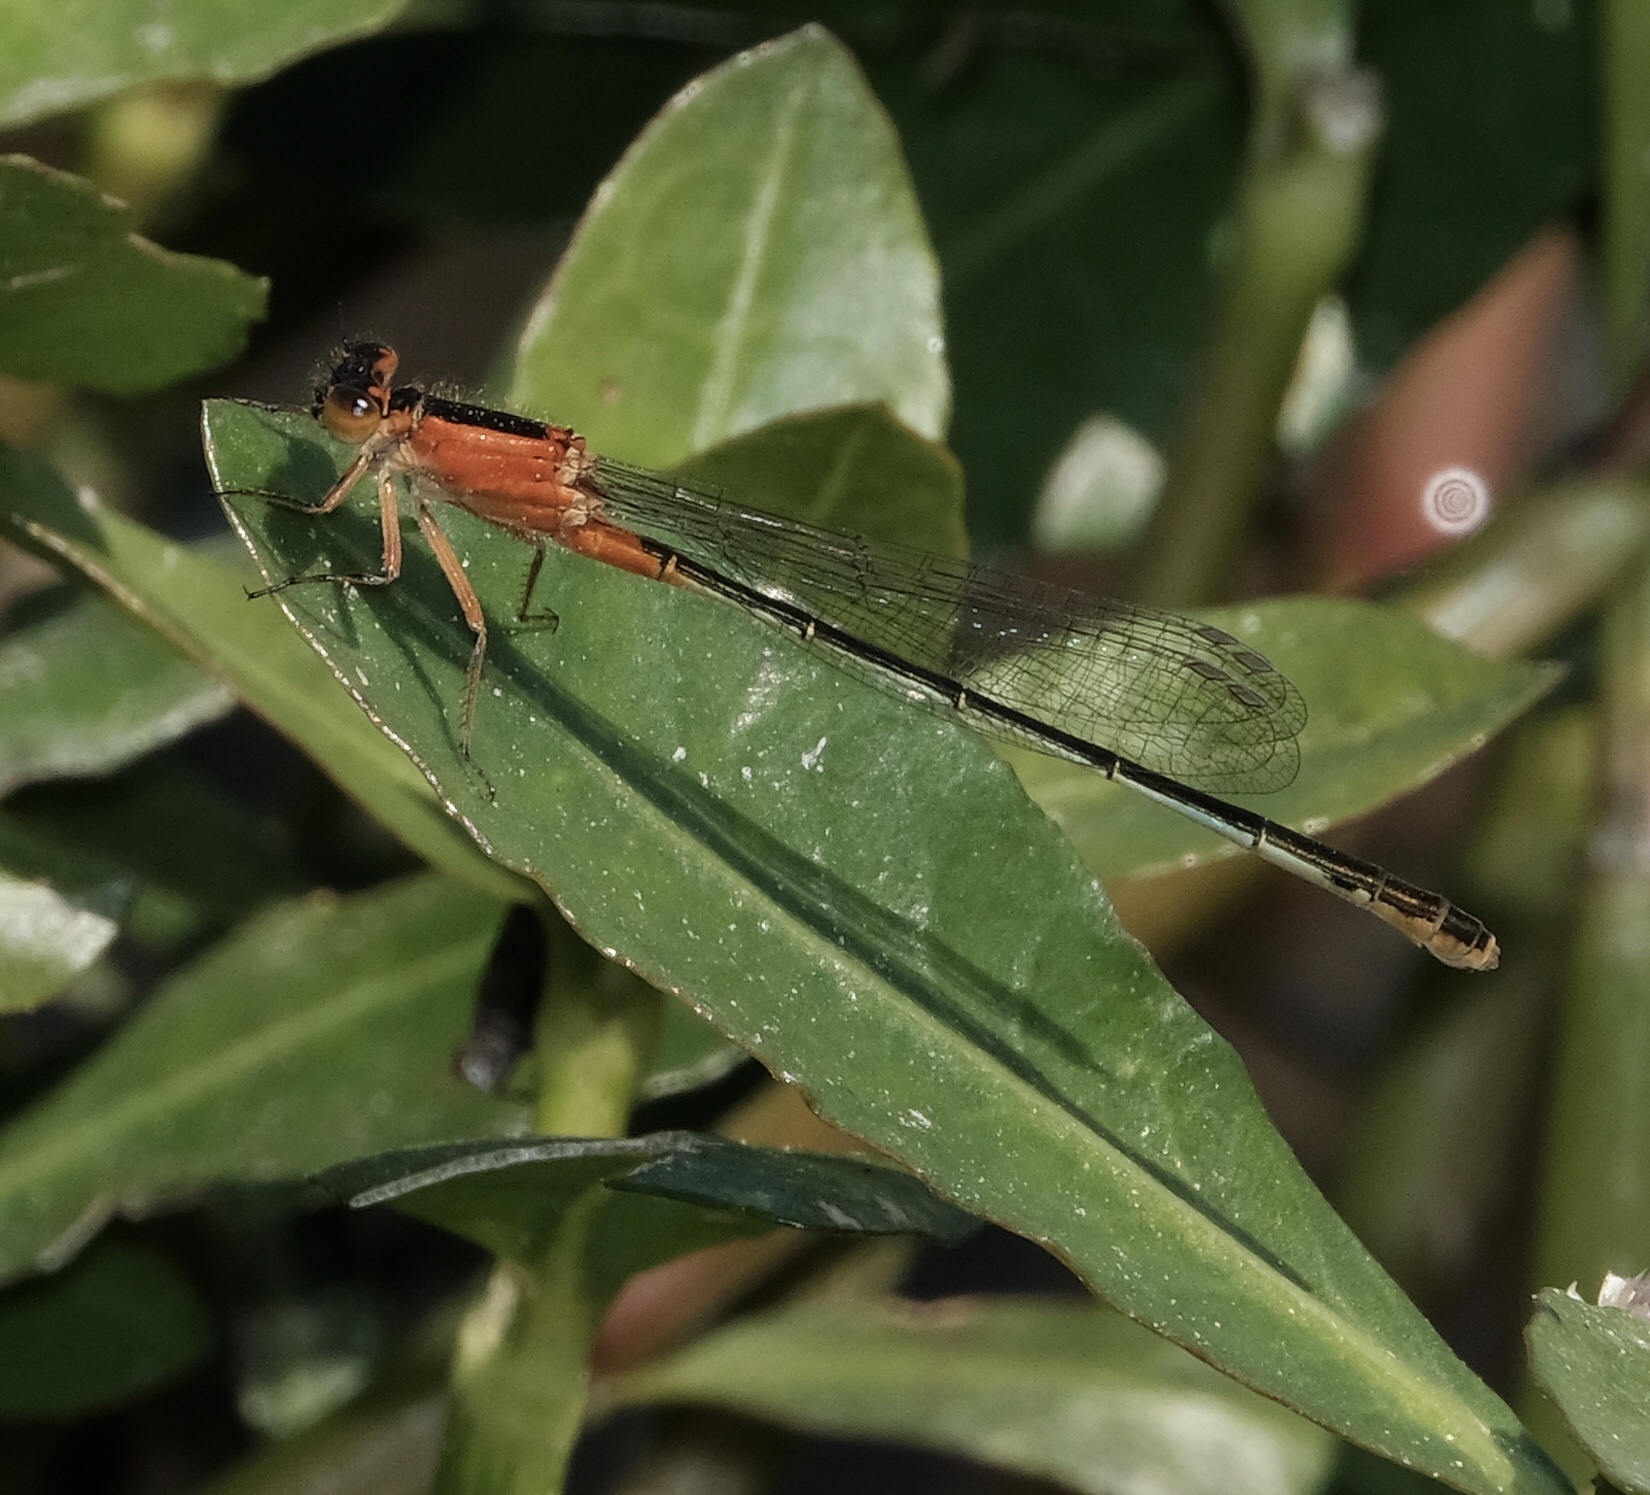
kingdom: Animalia
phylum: Arthropoda
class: Insecta
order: Odonata
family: Coenagrionidae
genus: Ischnura
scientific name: Ischnura ramburii
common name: Rambur's forktail
